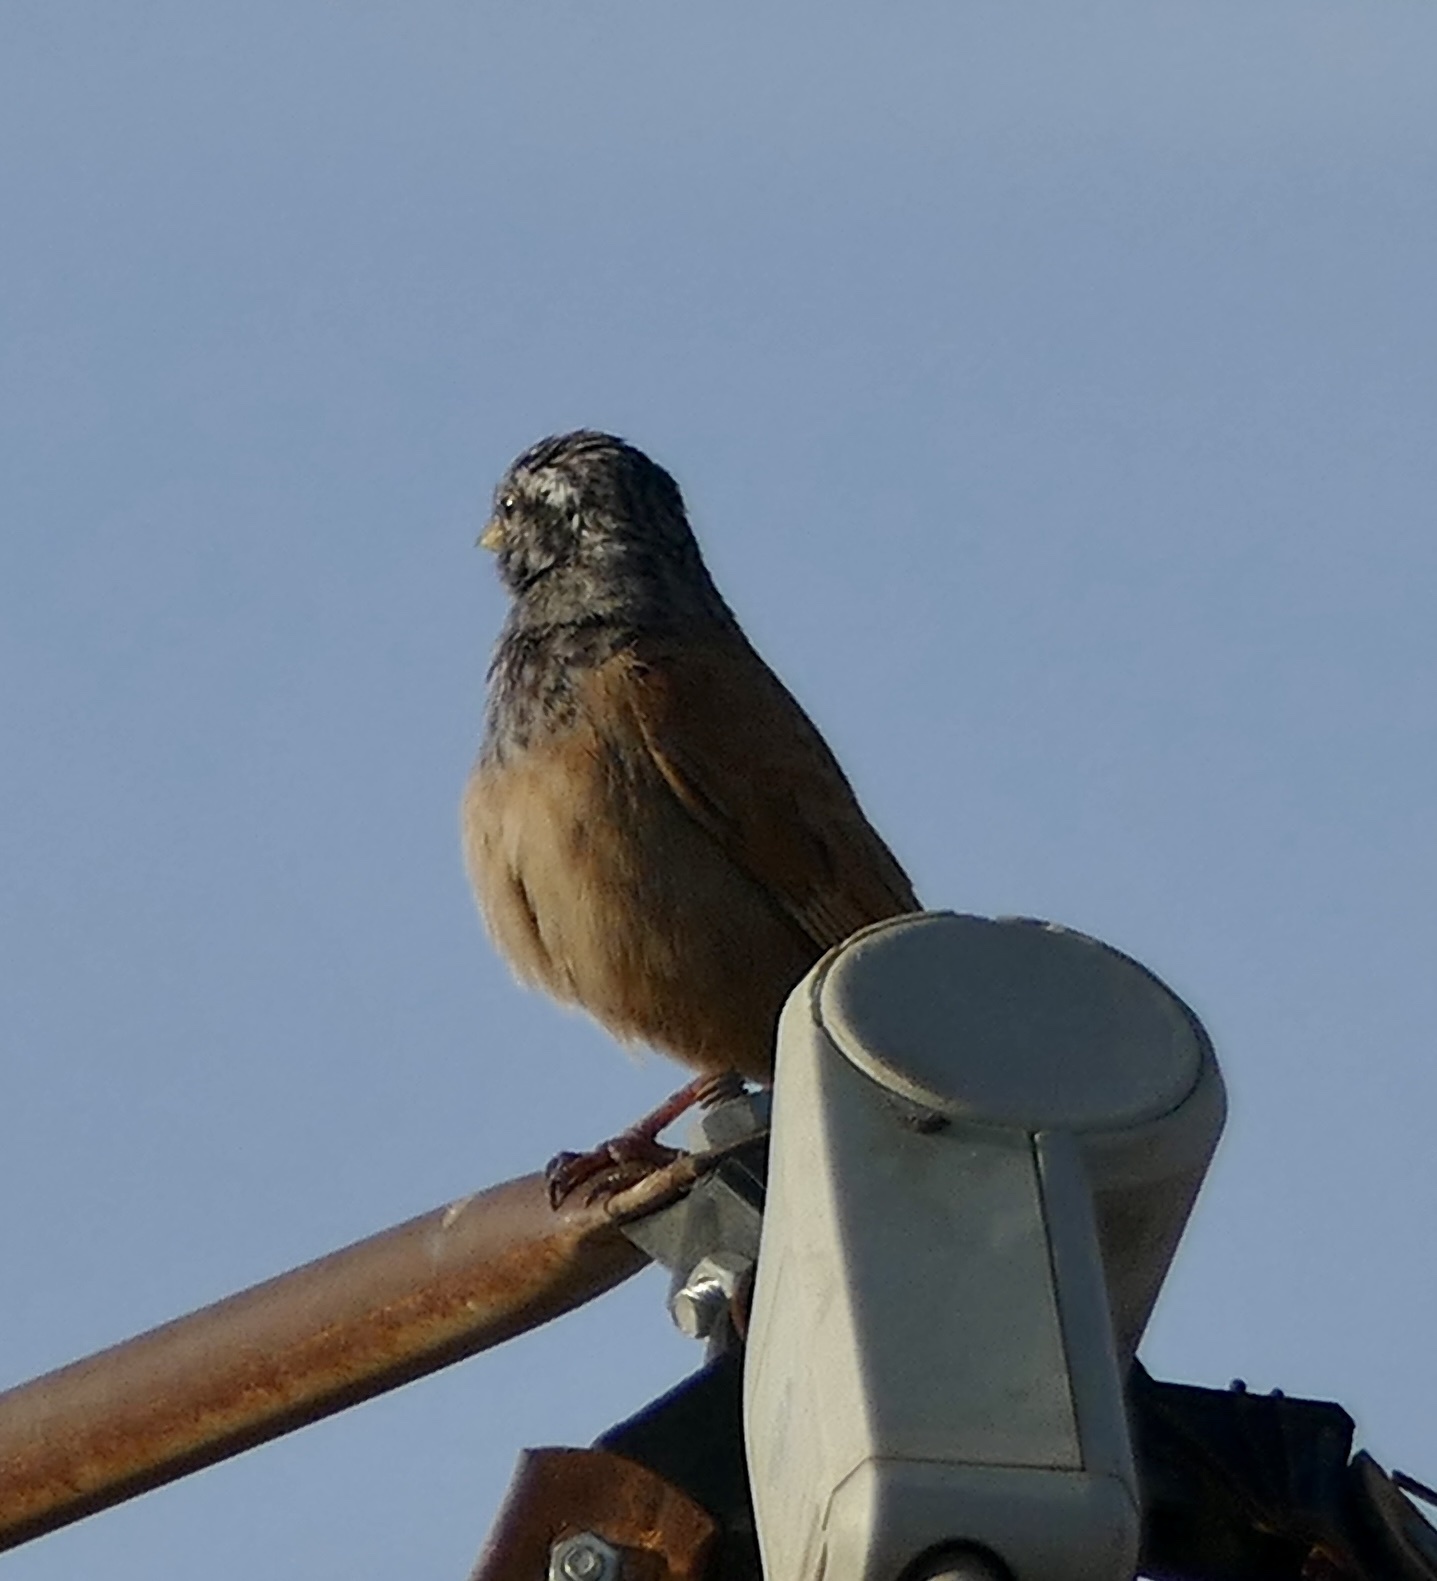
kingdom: Animalia
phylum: Chordata
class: Aves
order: Passeriformes
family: Emberizidae
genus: Emberiza
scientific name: Emberiza sahari
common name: House bunting
